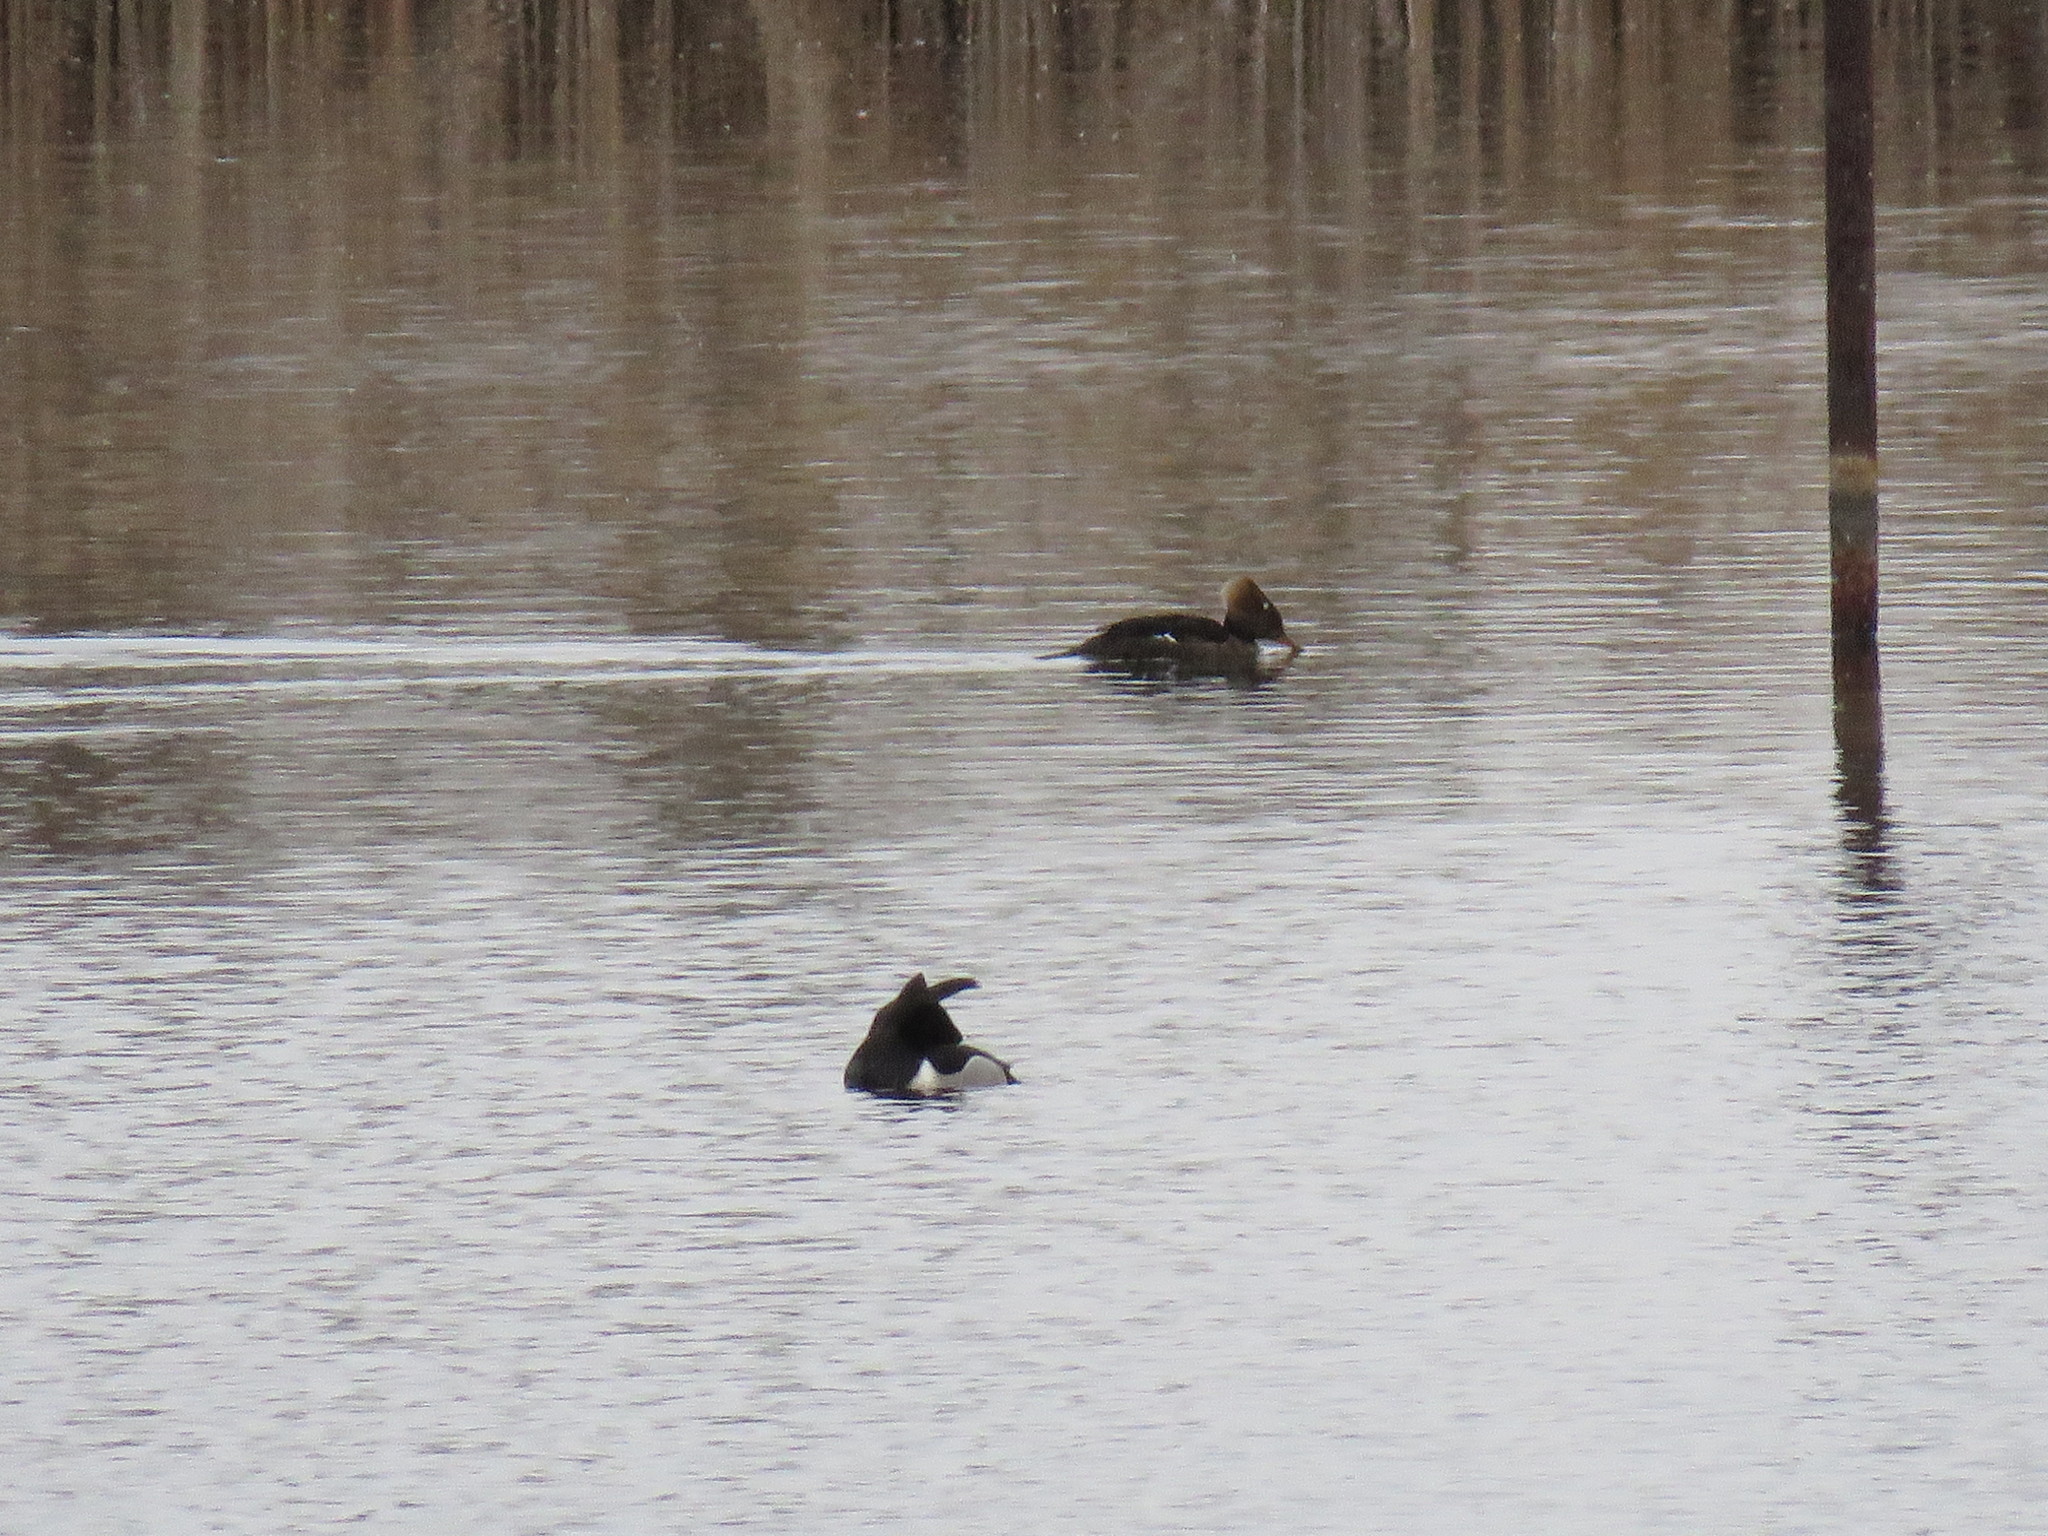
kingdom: Animalia
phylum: Chordata
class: Aves
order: Anseriformes
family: Anatidae
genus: Lophodytes
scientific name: Lophodytes cucullatus
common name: Hooded merganser
